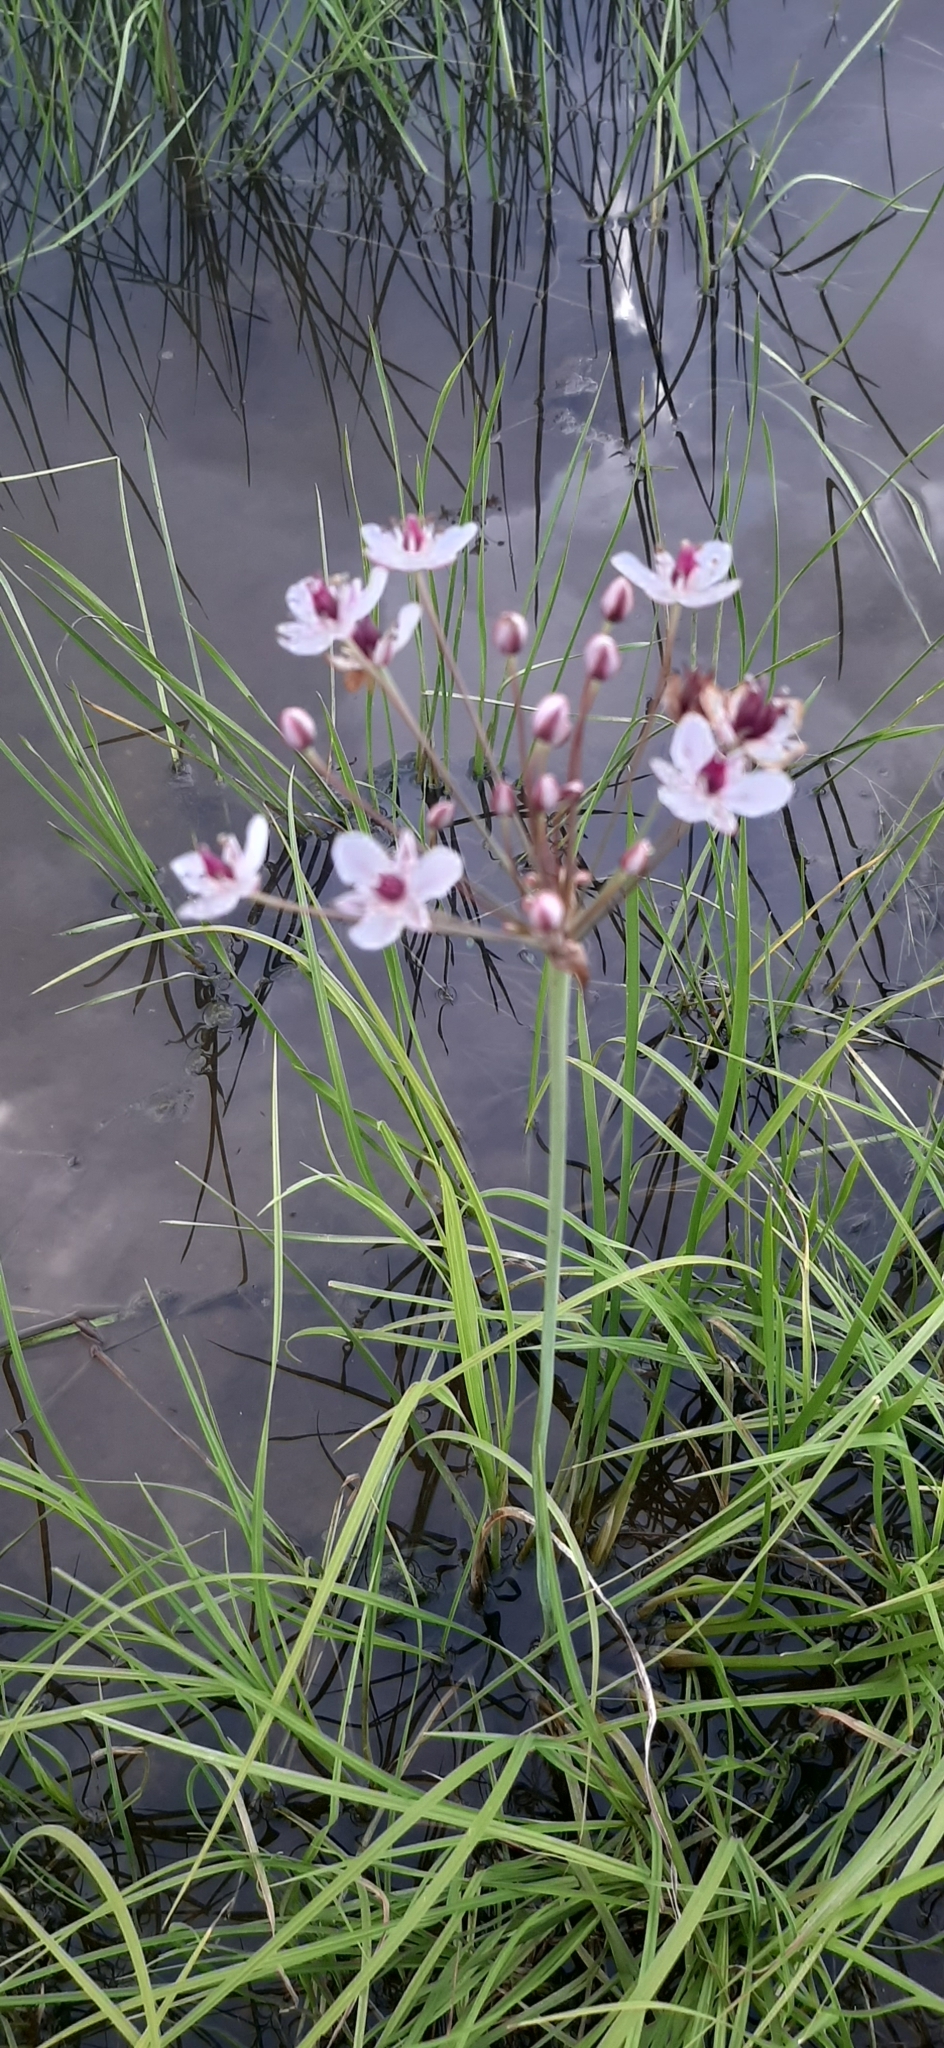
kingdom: Plantae
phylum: Tracheophyta
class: Liliopsida
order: Alismatales
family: Butomaceae
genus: Butomus
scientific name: Butomus umbellatus
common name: Flowering-rush
